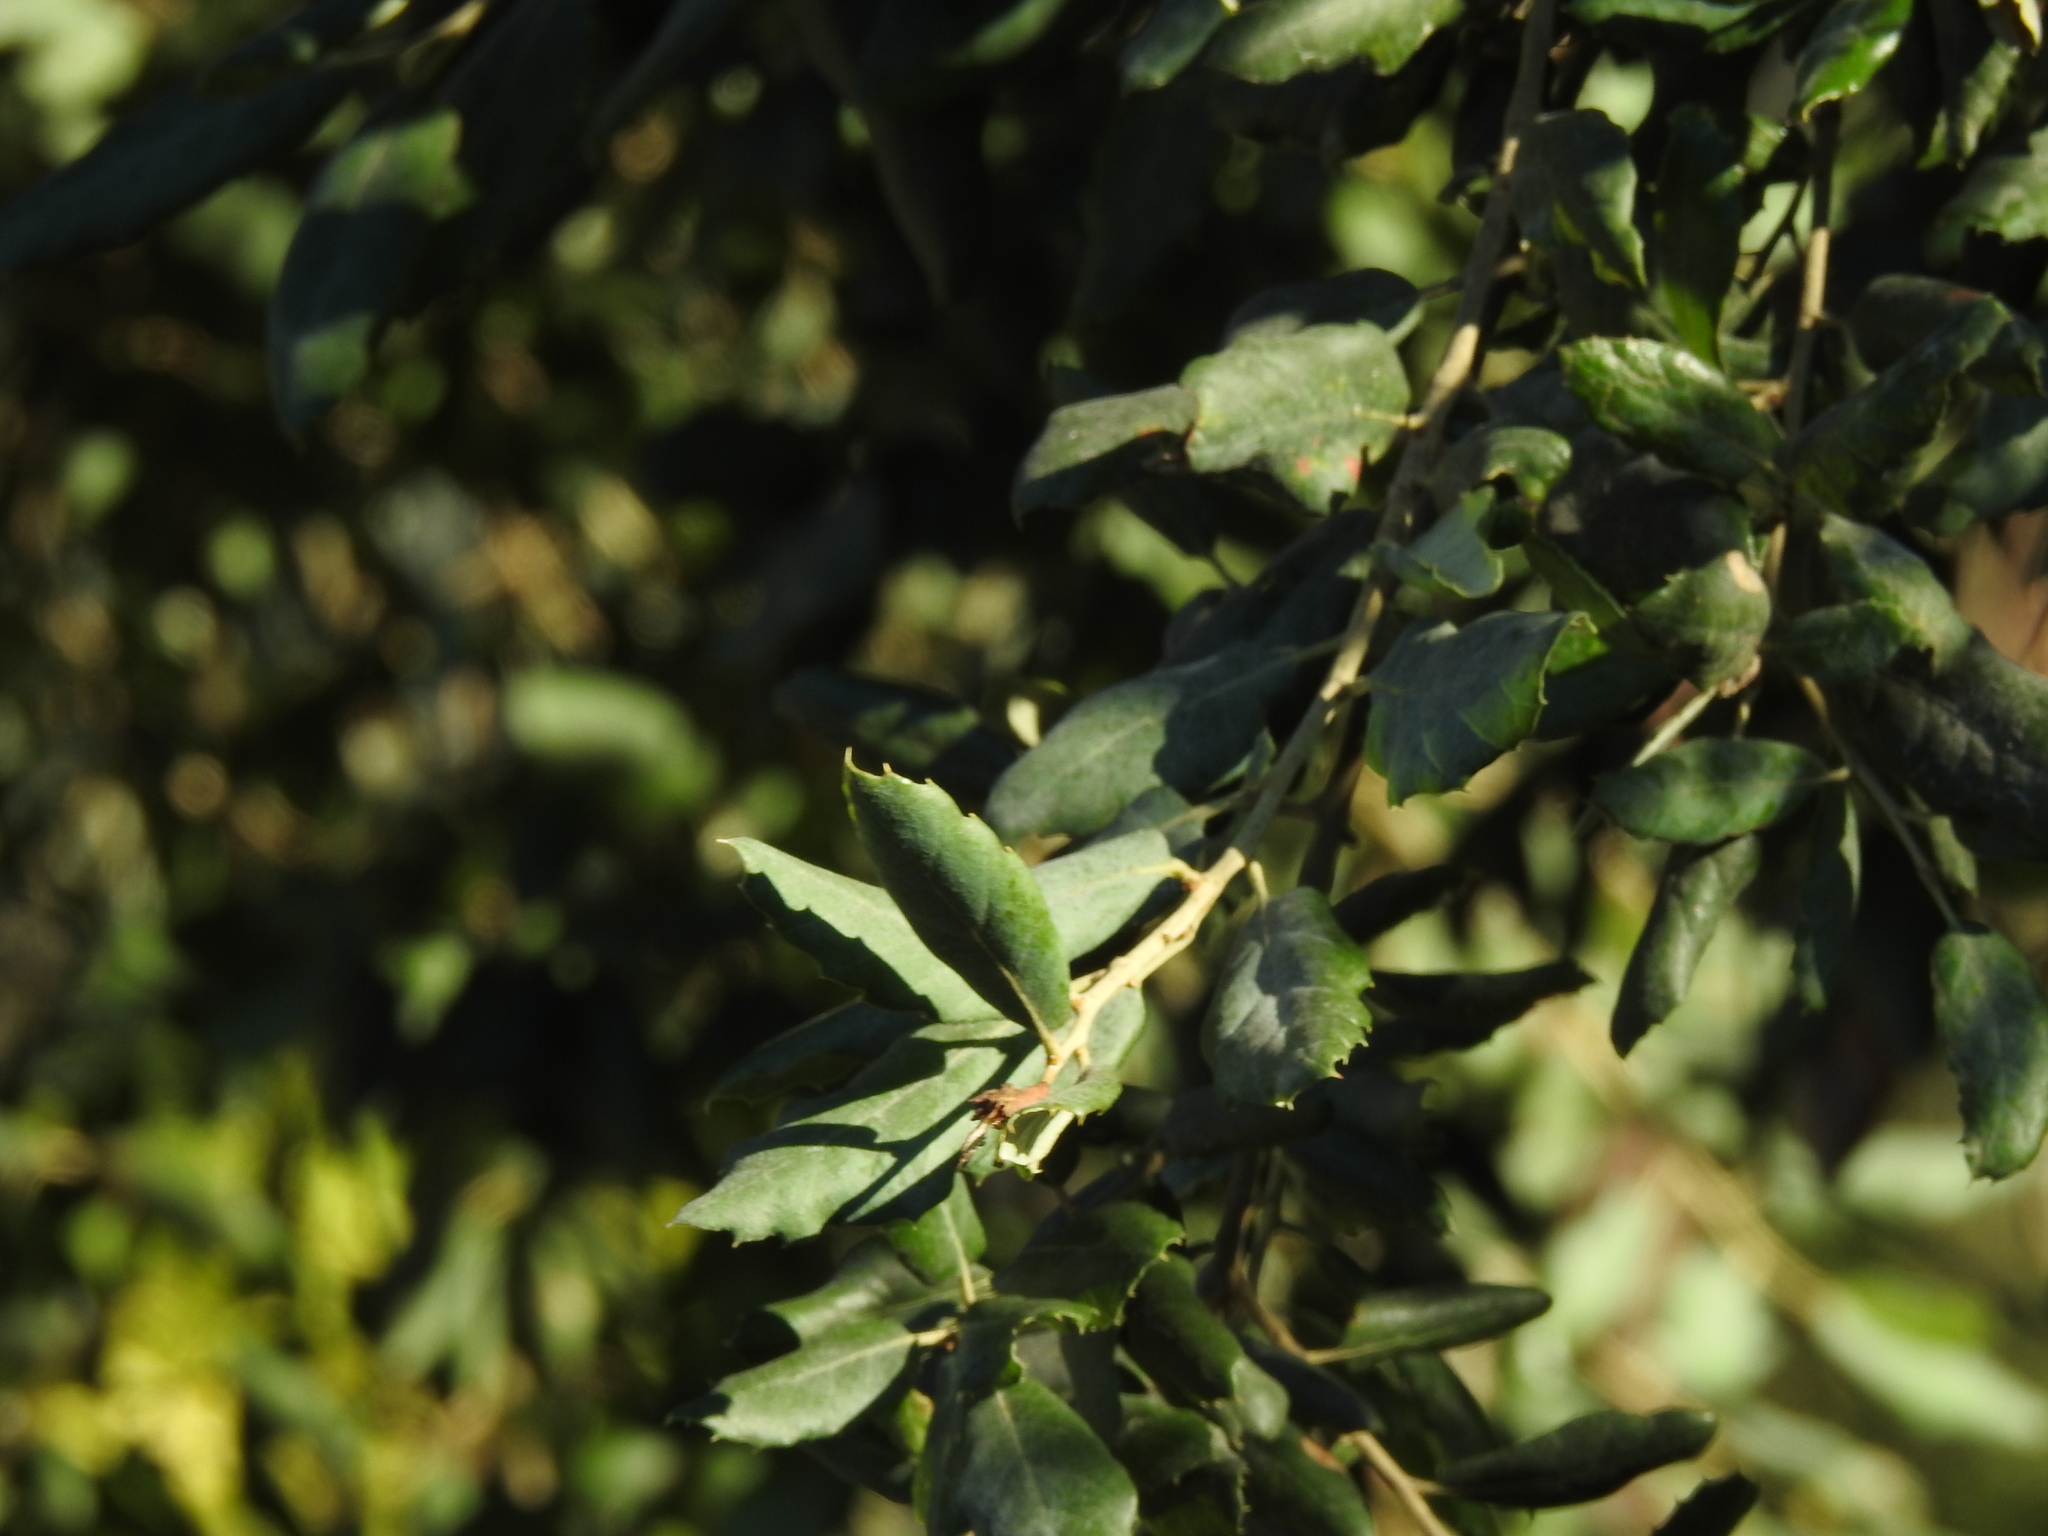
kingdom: Plantae
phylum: Tracheophyta
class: Magnoliopsida
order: Fagales
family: Fagaceae
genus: Quercus
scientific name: Quercus suber
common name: Cork oak
